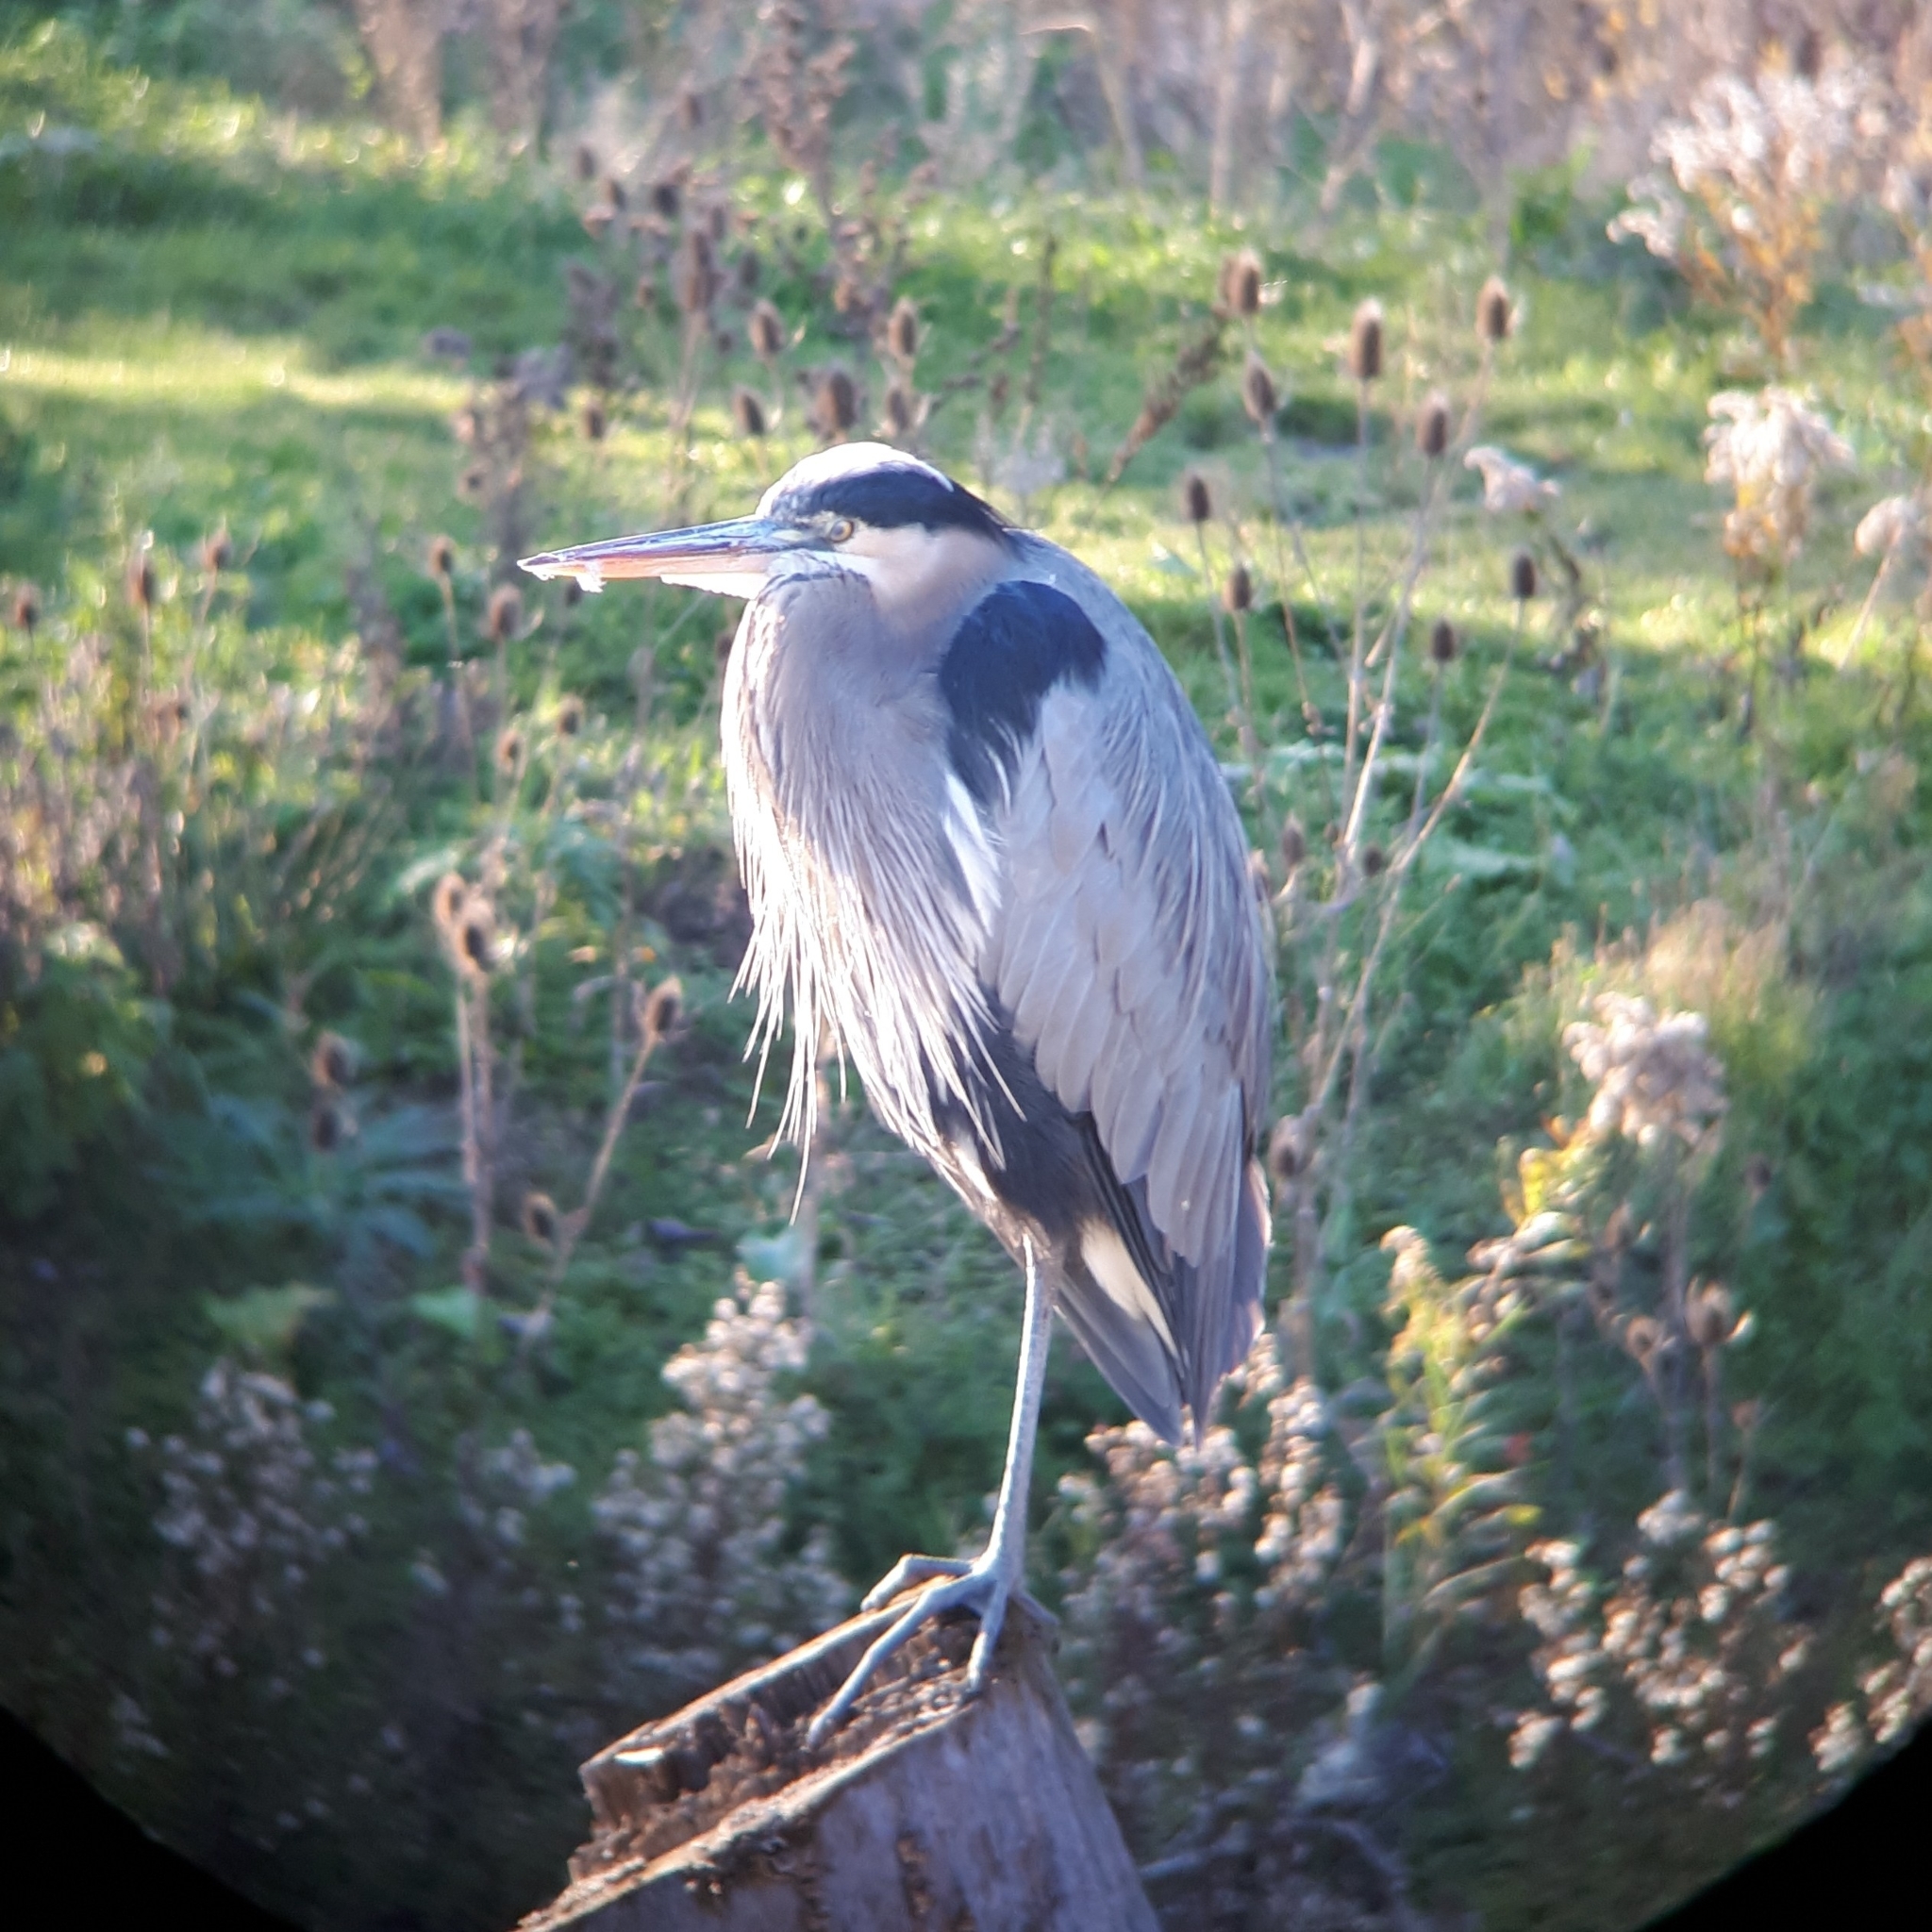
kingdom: Animalia
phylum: Chordata
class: Aves
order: Pelecaniformes
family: Ardeidae
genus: Ardea
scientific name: Ardea herodias
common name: Great blue heron
